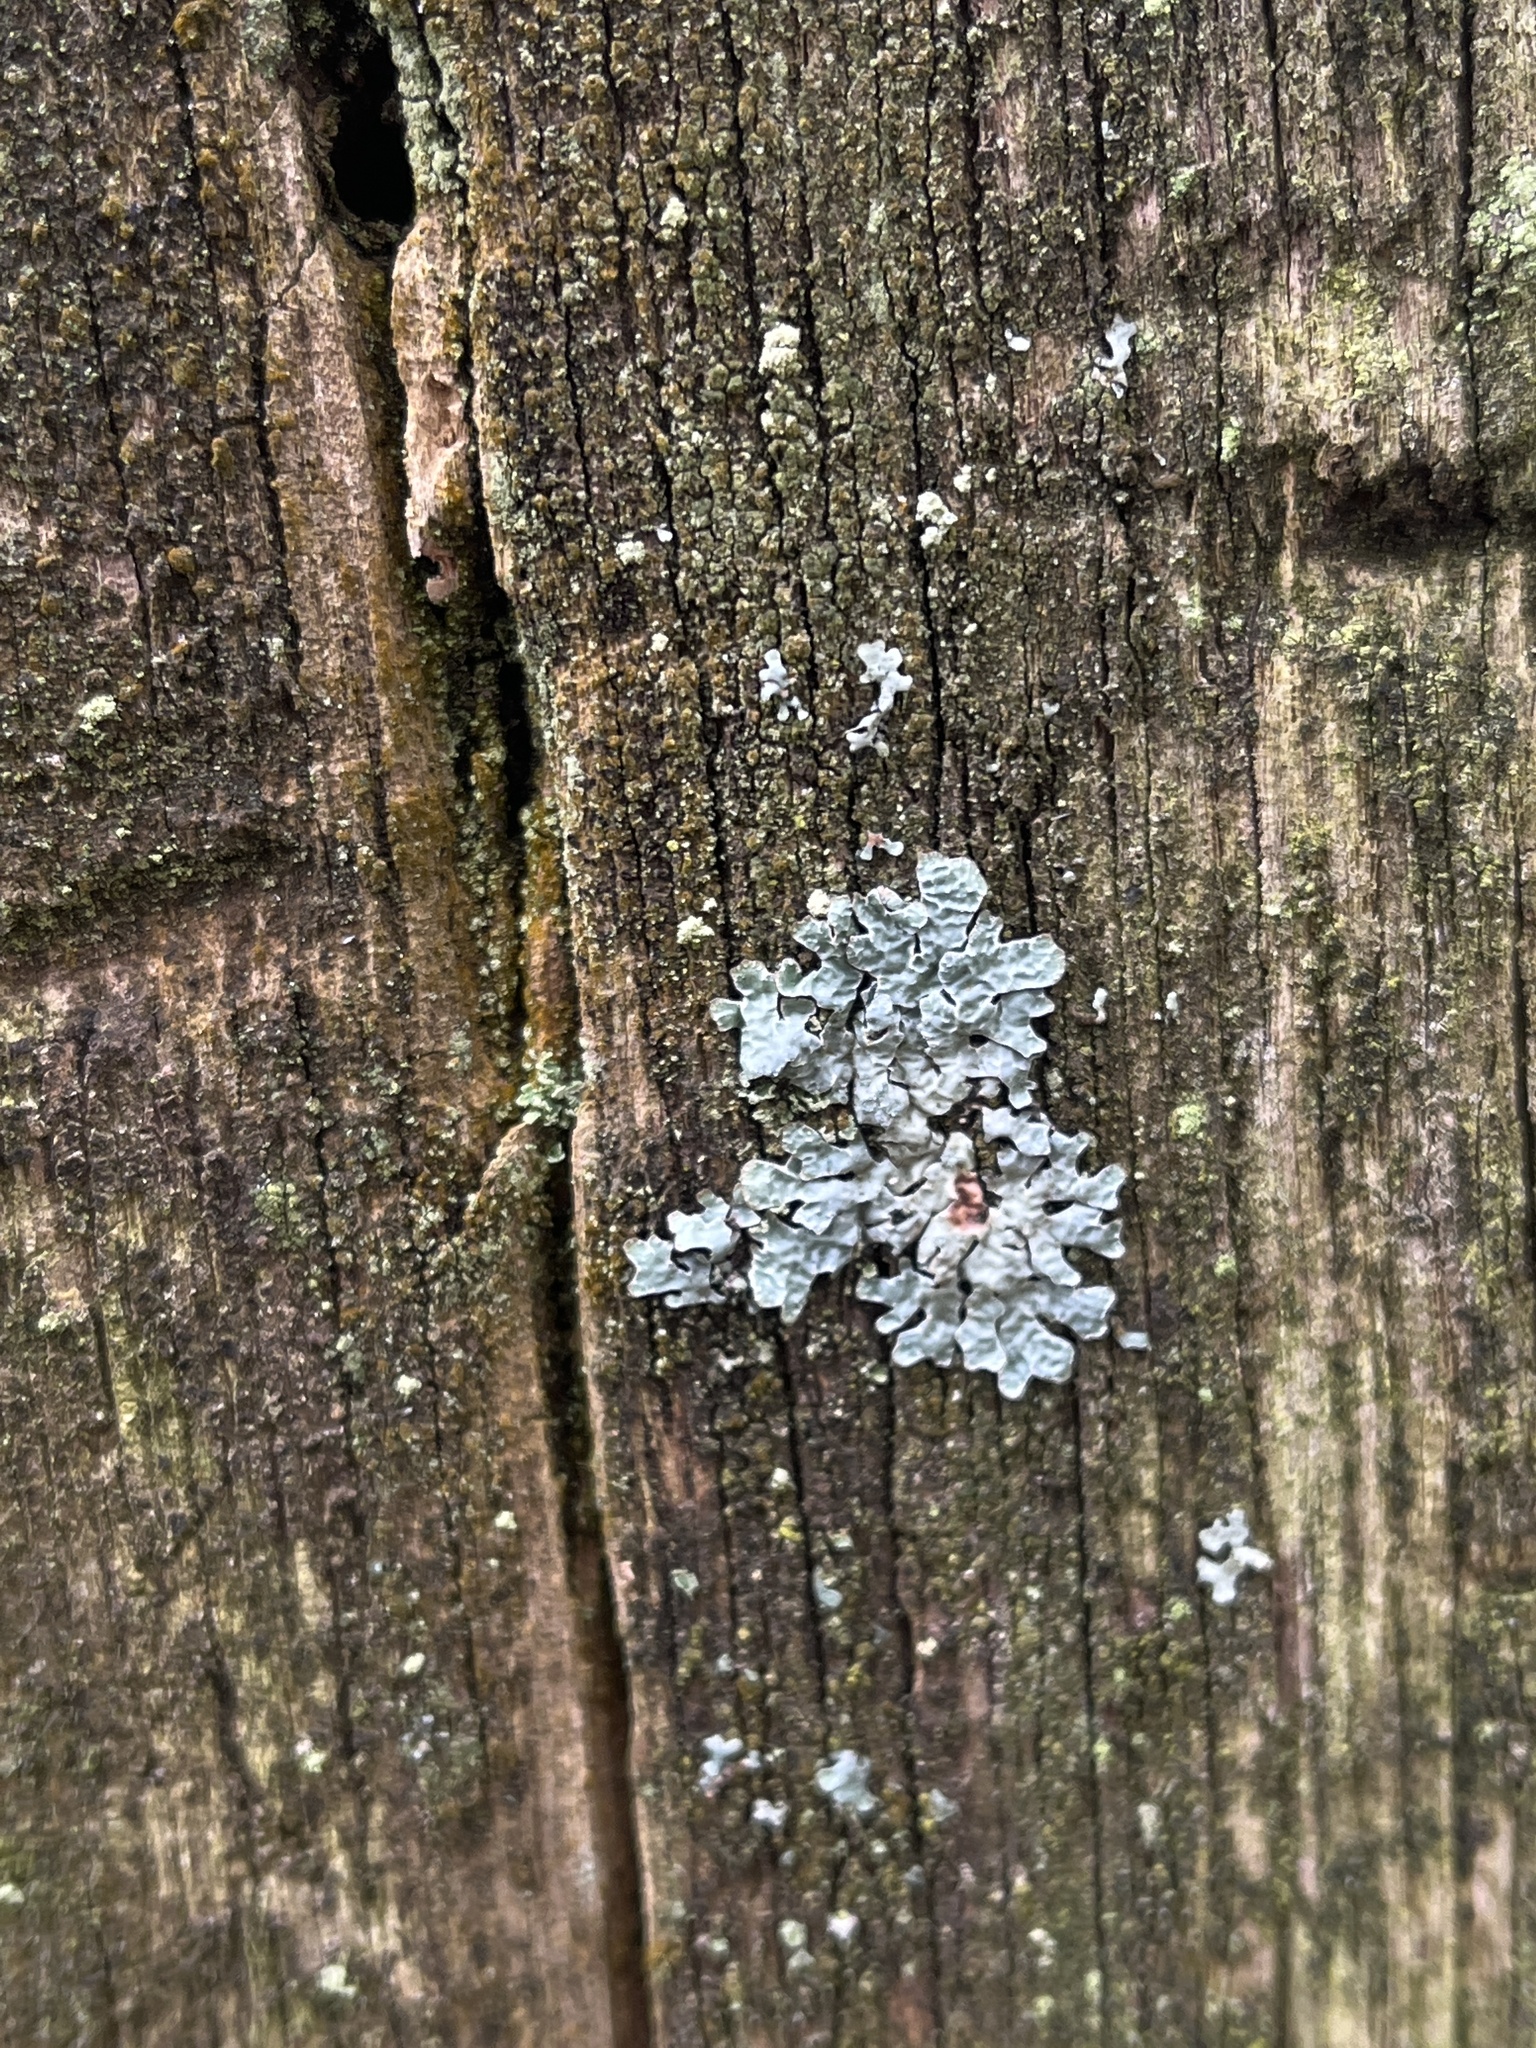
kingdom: Fungi
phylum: Ascomycota
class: Lecanoromycetes
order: Lecanorales
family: Parmeliaceae
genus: Parmelia
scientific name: Parmelia sulcata
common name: Netted shield lichen
